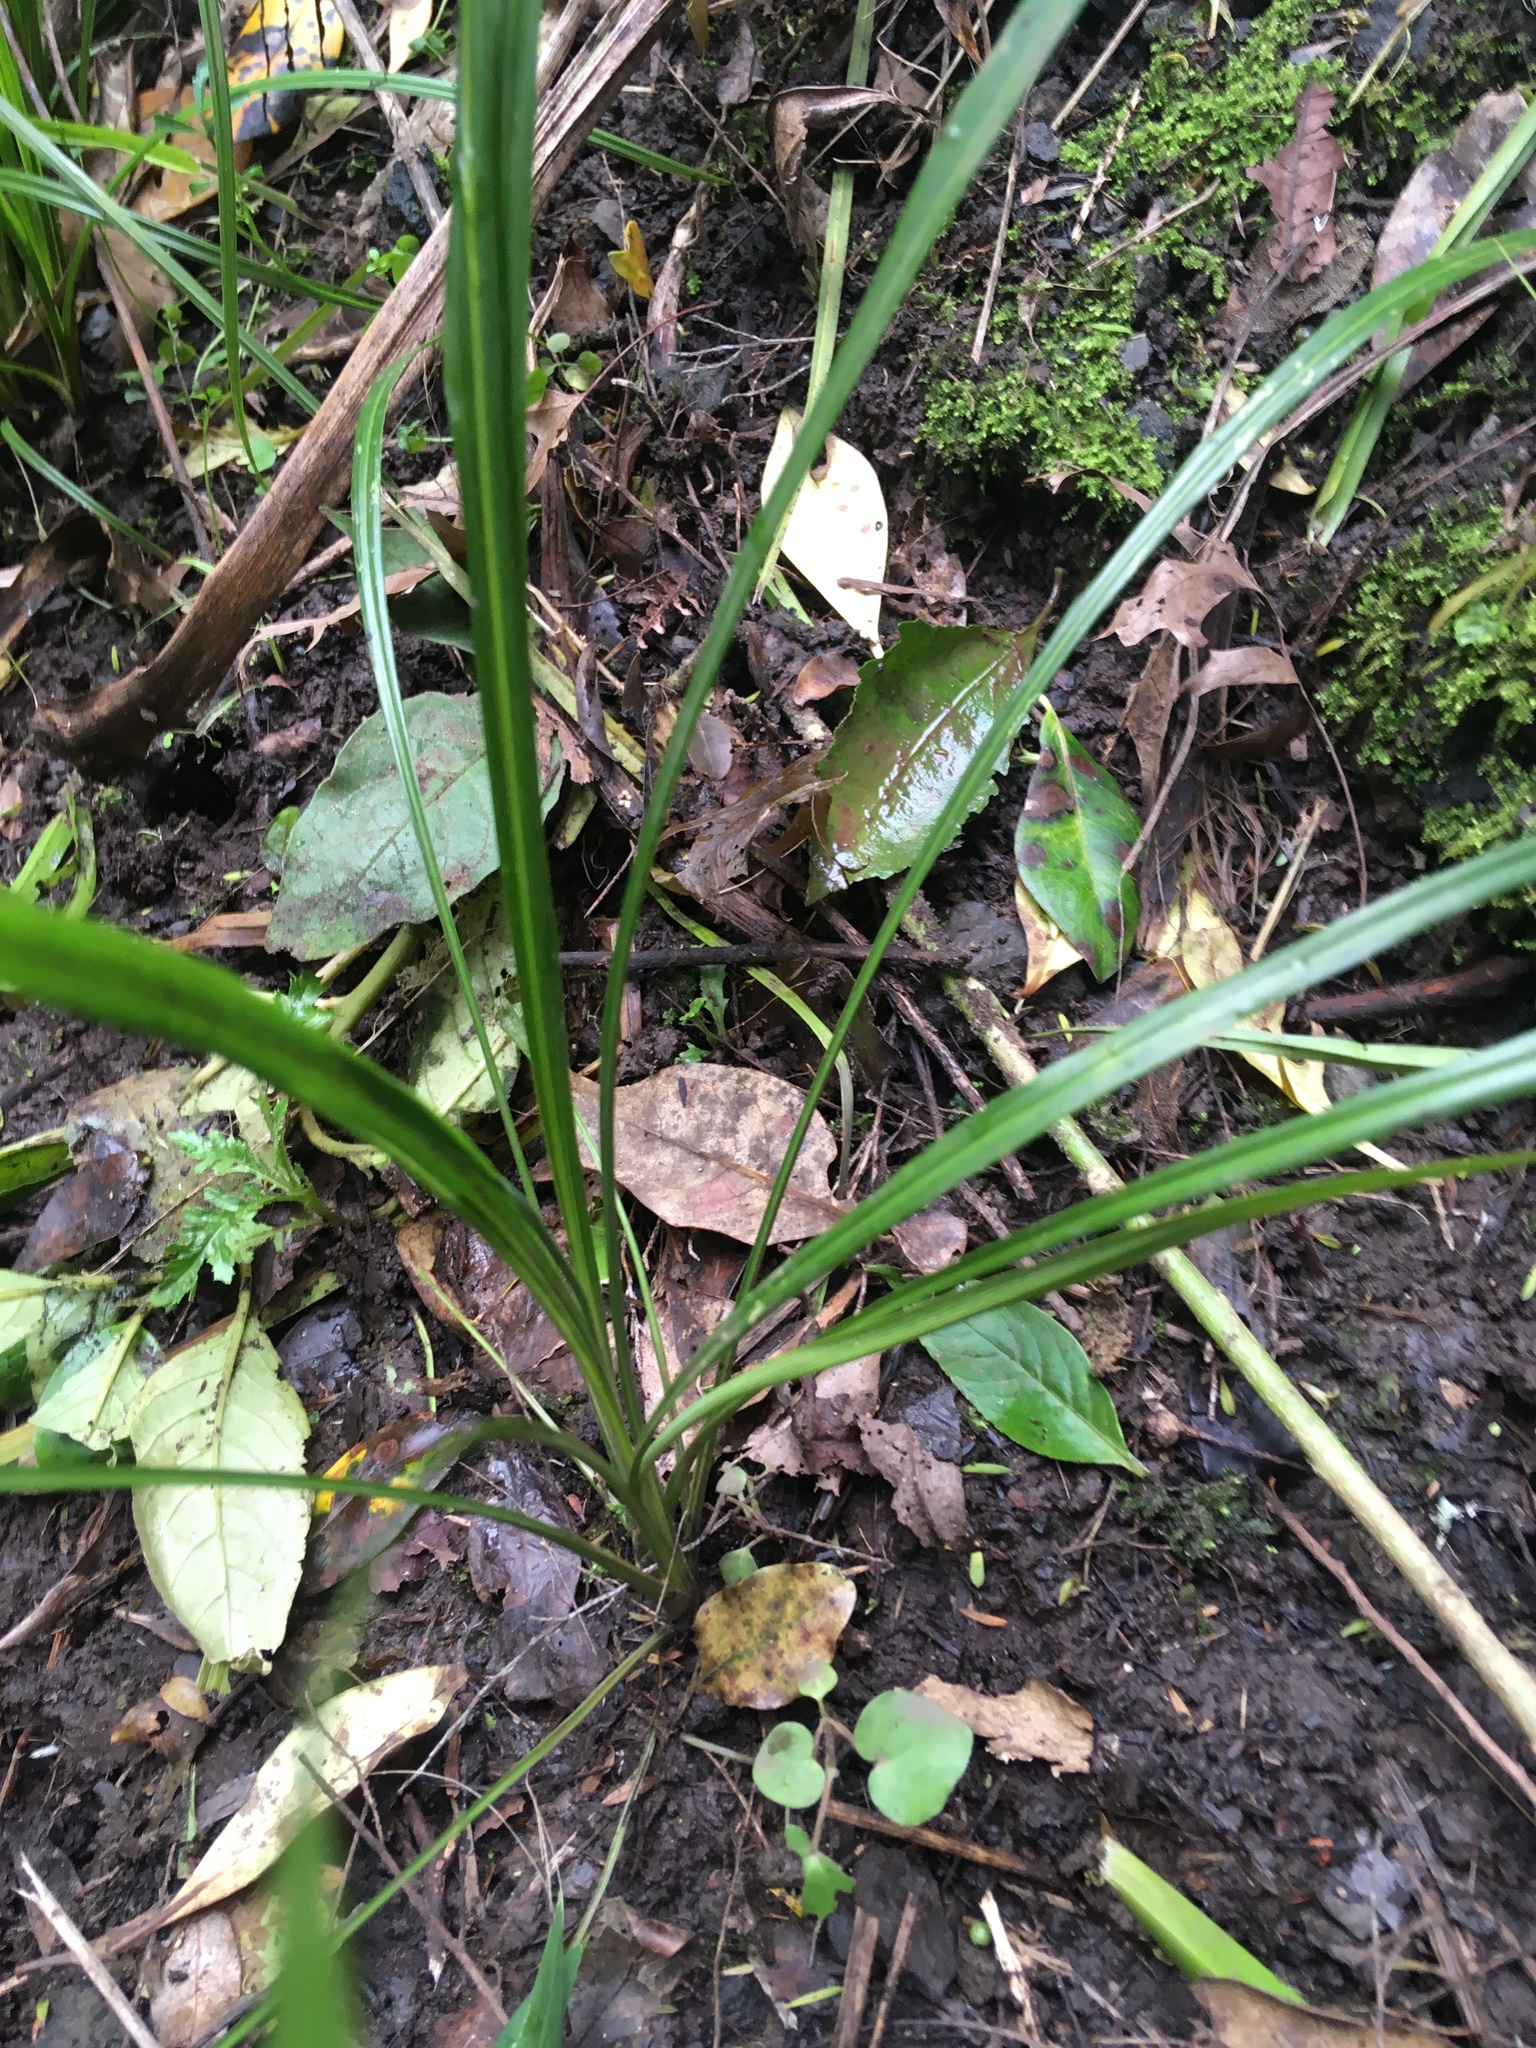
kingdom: Plantae
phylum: Tracheophyta
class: Liliopsida
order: Asparagales
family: Asparagaceae
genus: Cordyline
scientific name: Cordyline australis
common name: Cabbage-palm
